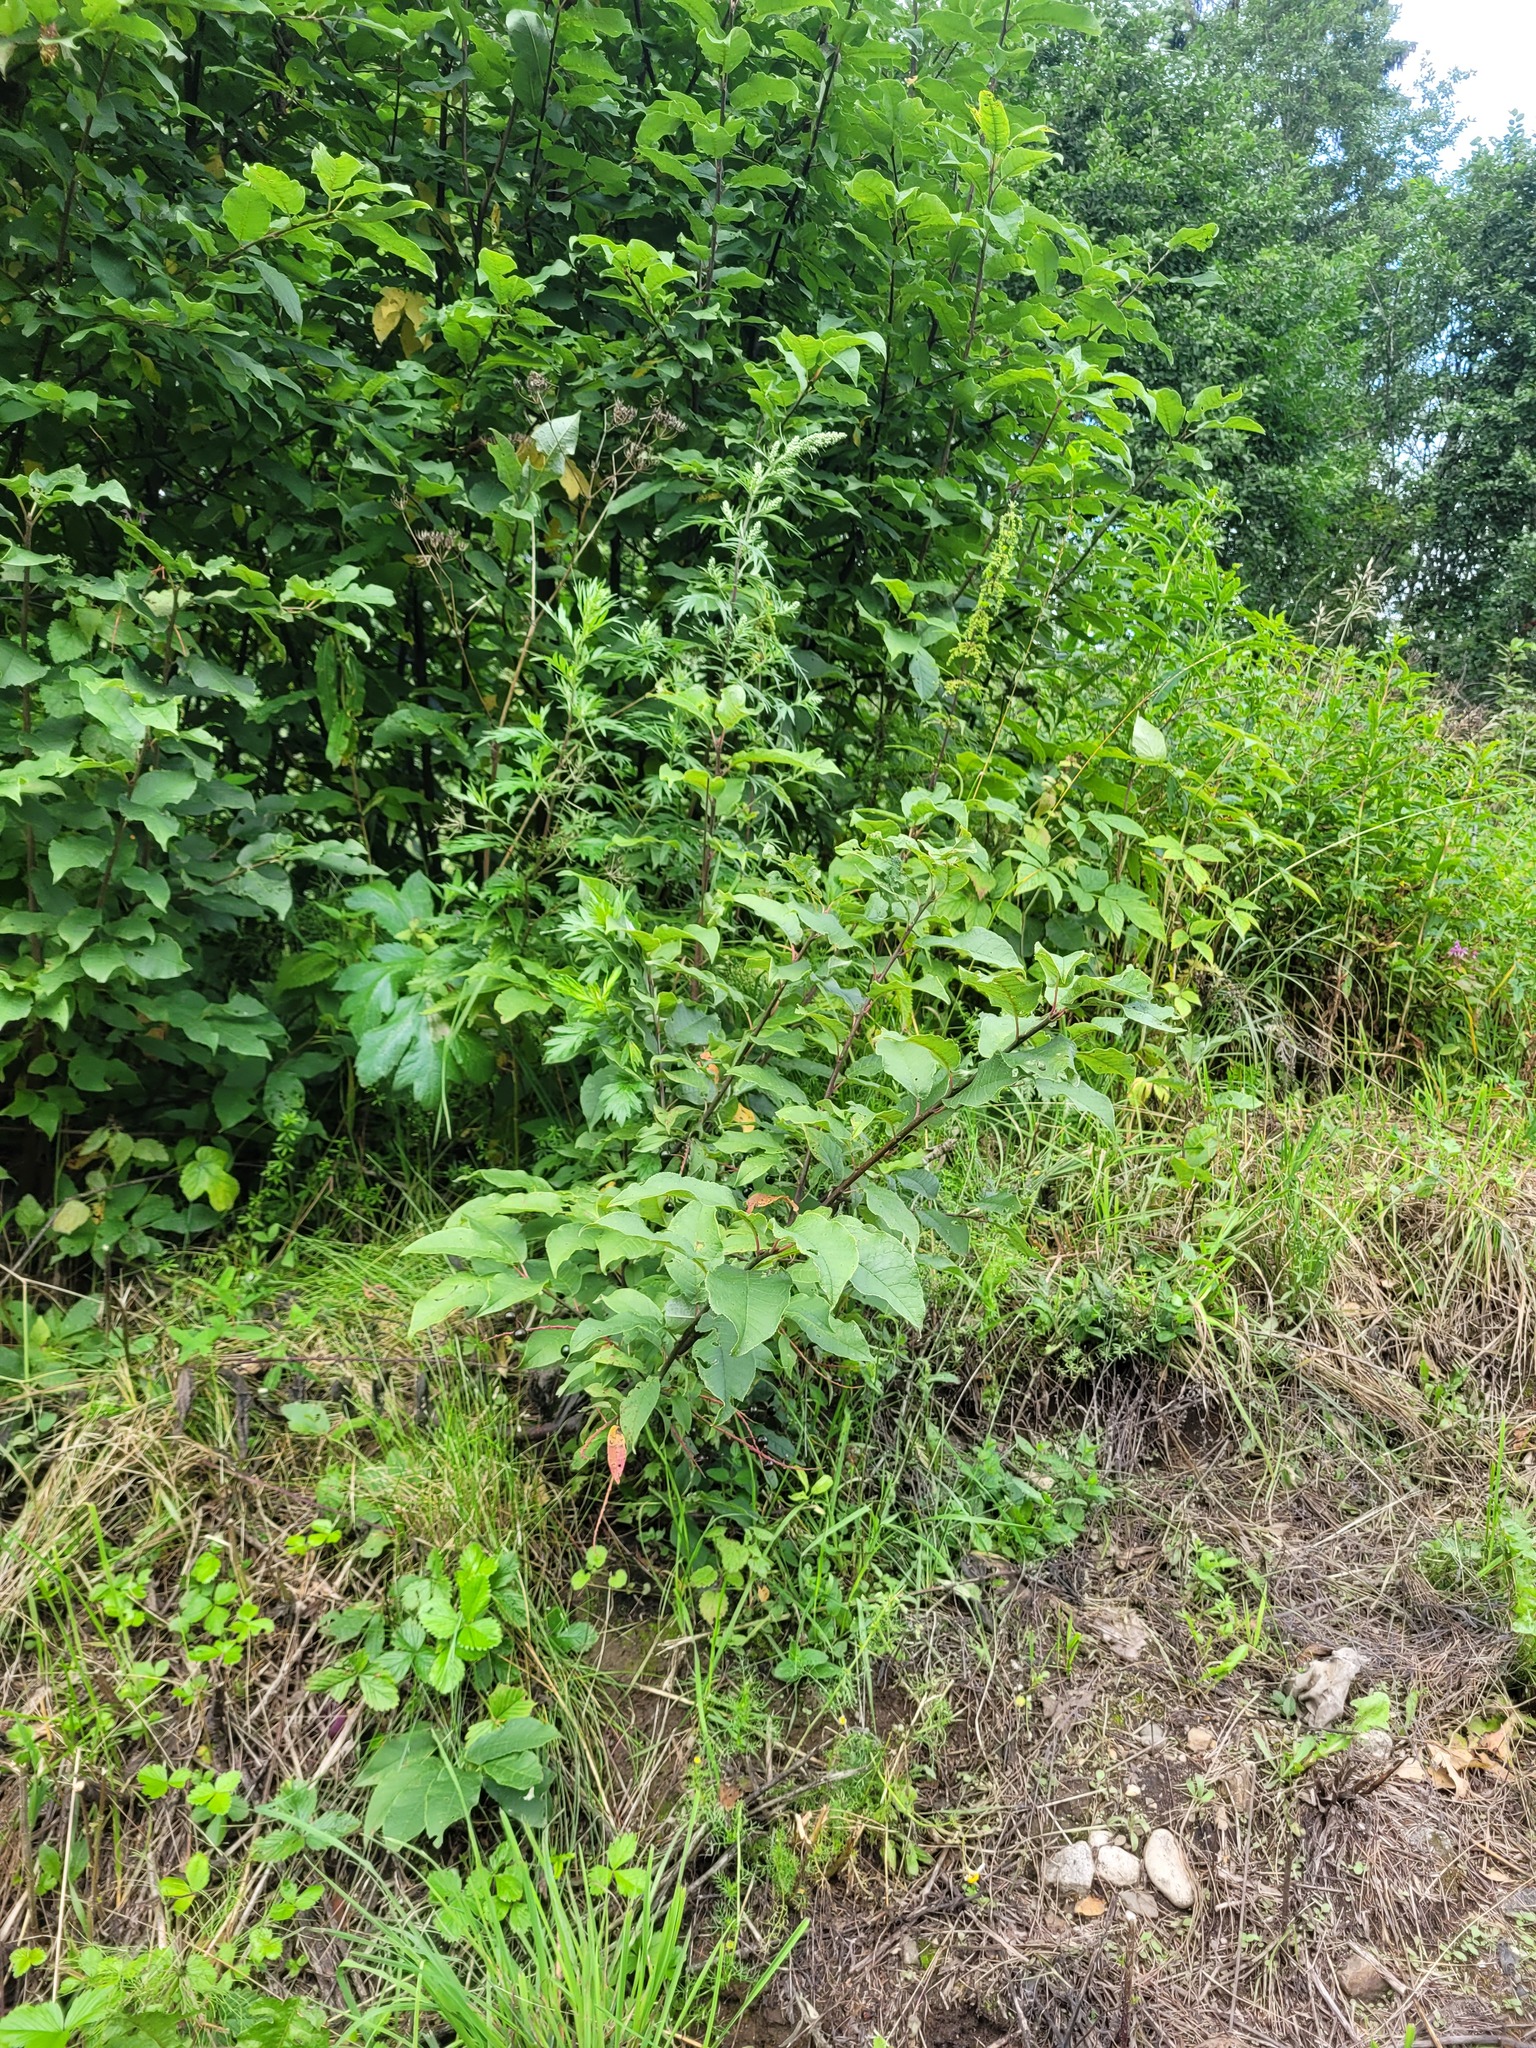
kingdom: Plantae
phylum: Tracheophyta
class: Magnoliopsida
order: Rosales
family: Rosaceae
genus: Prunus
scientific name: Prunus padus
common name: Bird cherry
